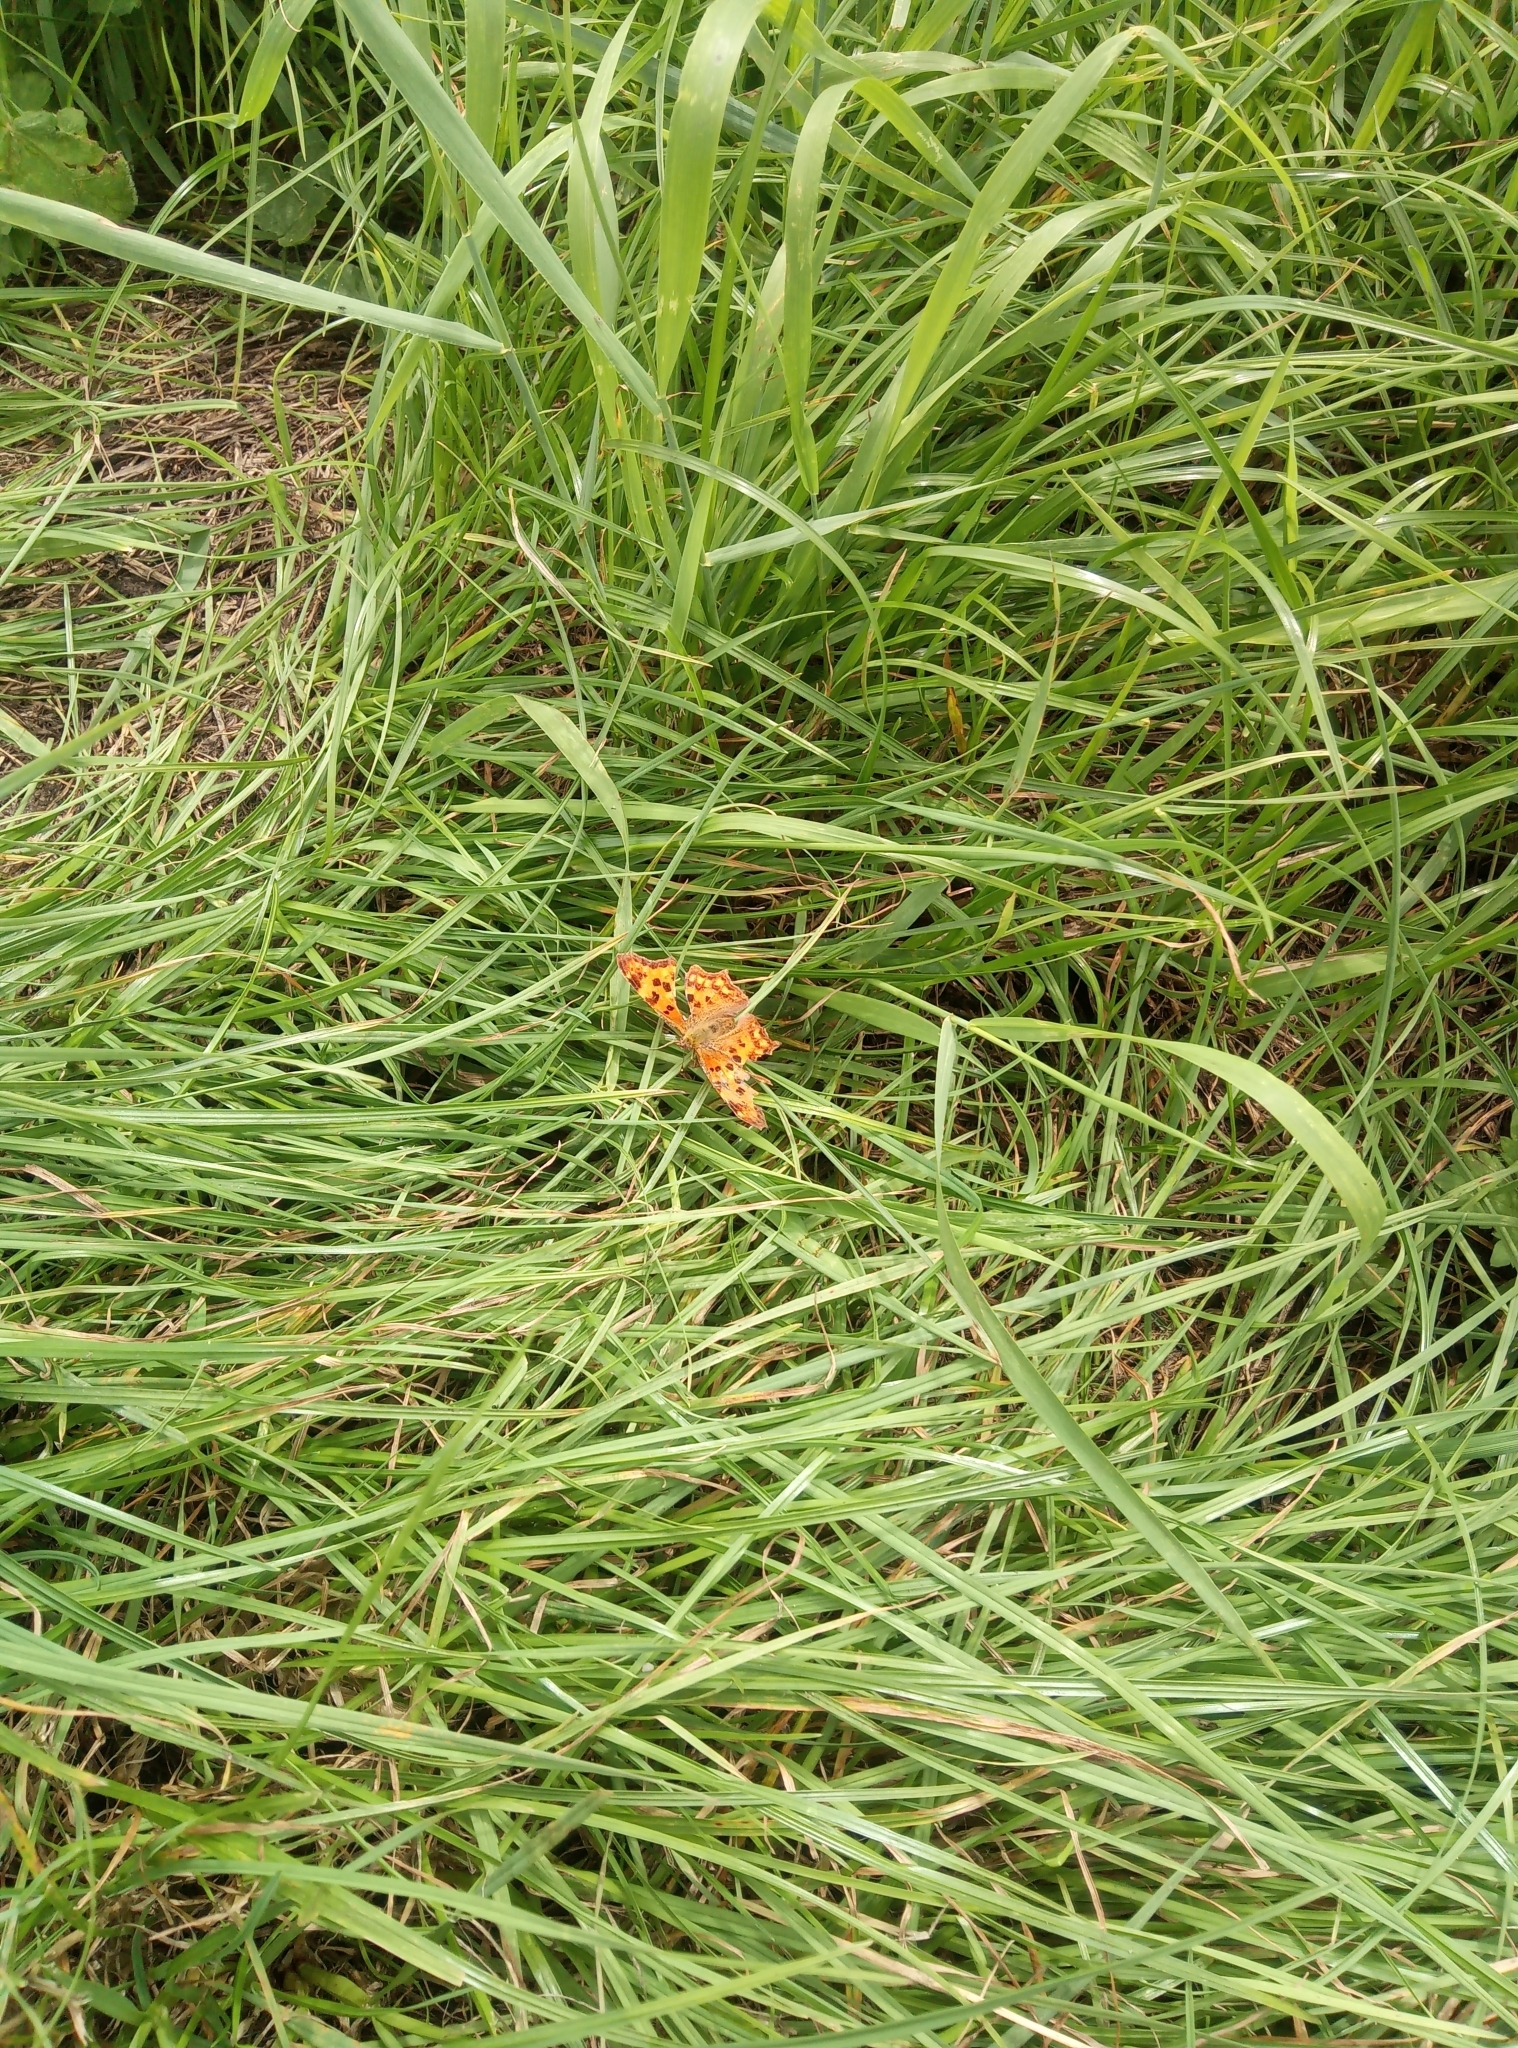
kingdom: Animalia
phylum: Arthropoda
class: Insecta
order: Lepidoptera
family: Nymphalidae
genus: Polygonia
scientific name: Polygonia c-album
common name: Comma
